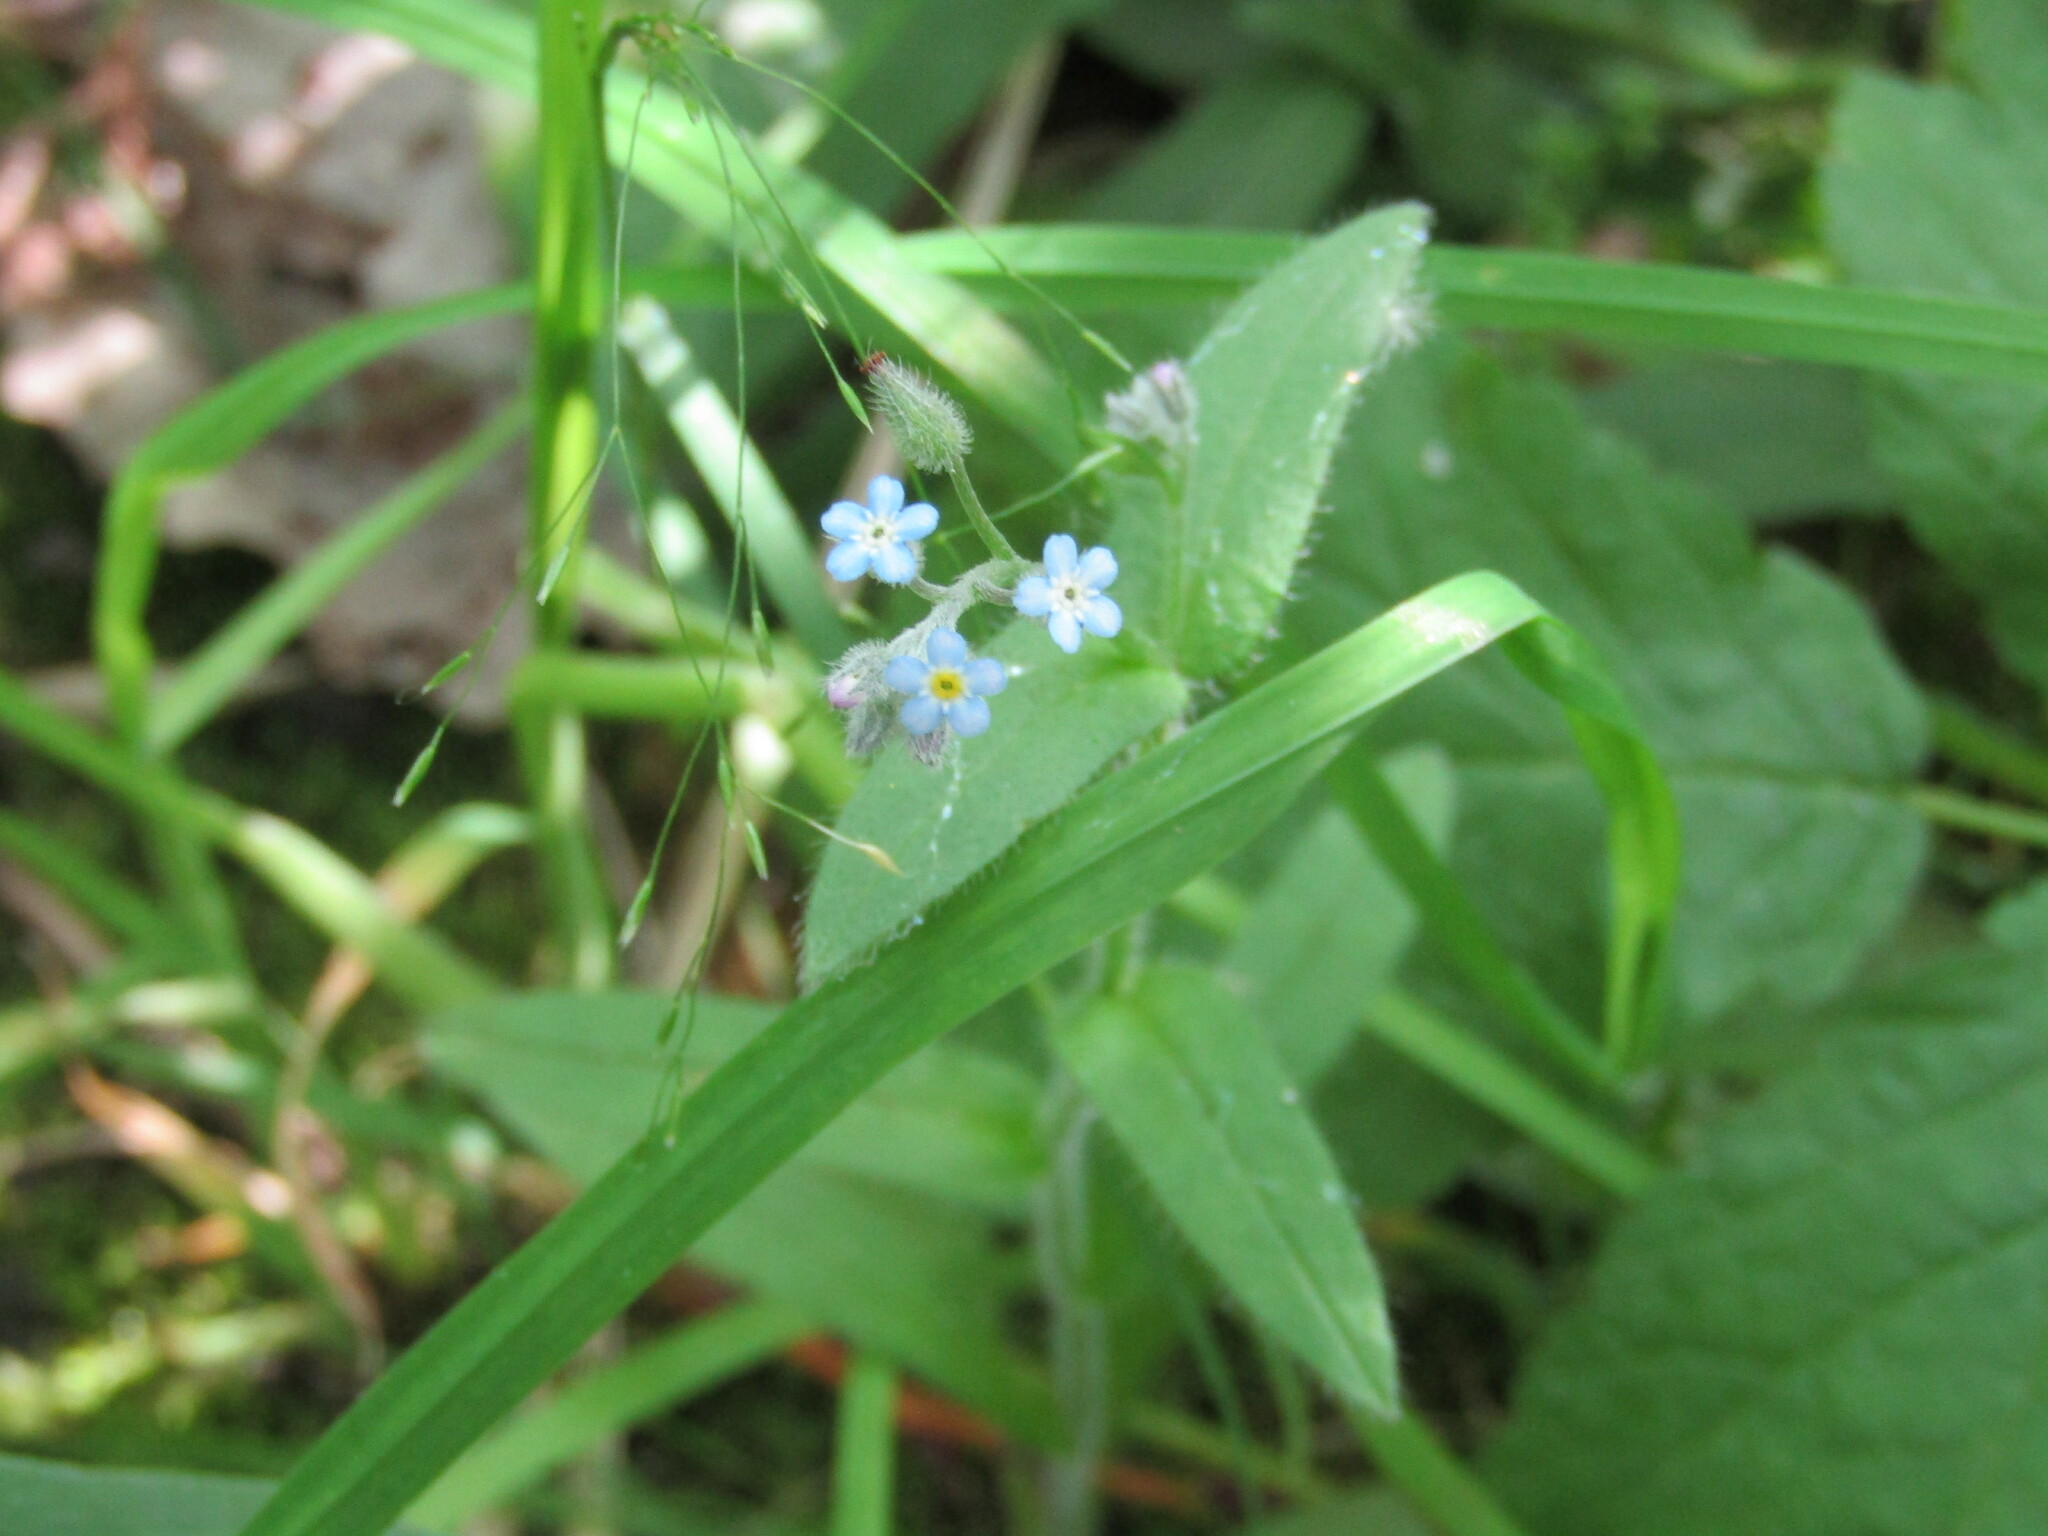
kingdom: Plantae
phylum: Tracheophyta
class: Magnoliopsida
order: Boraginales
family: Boraginaceae
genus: Myosotis
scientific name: Myosotis arvensis
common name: Field forget-me-not
